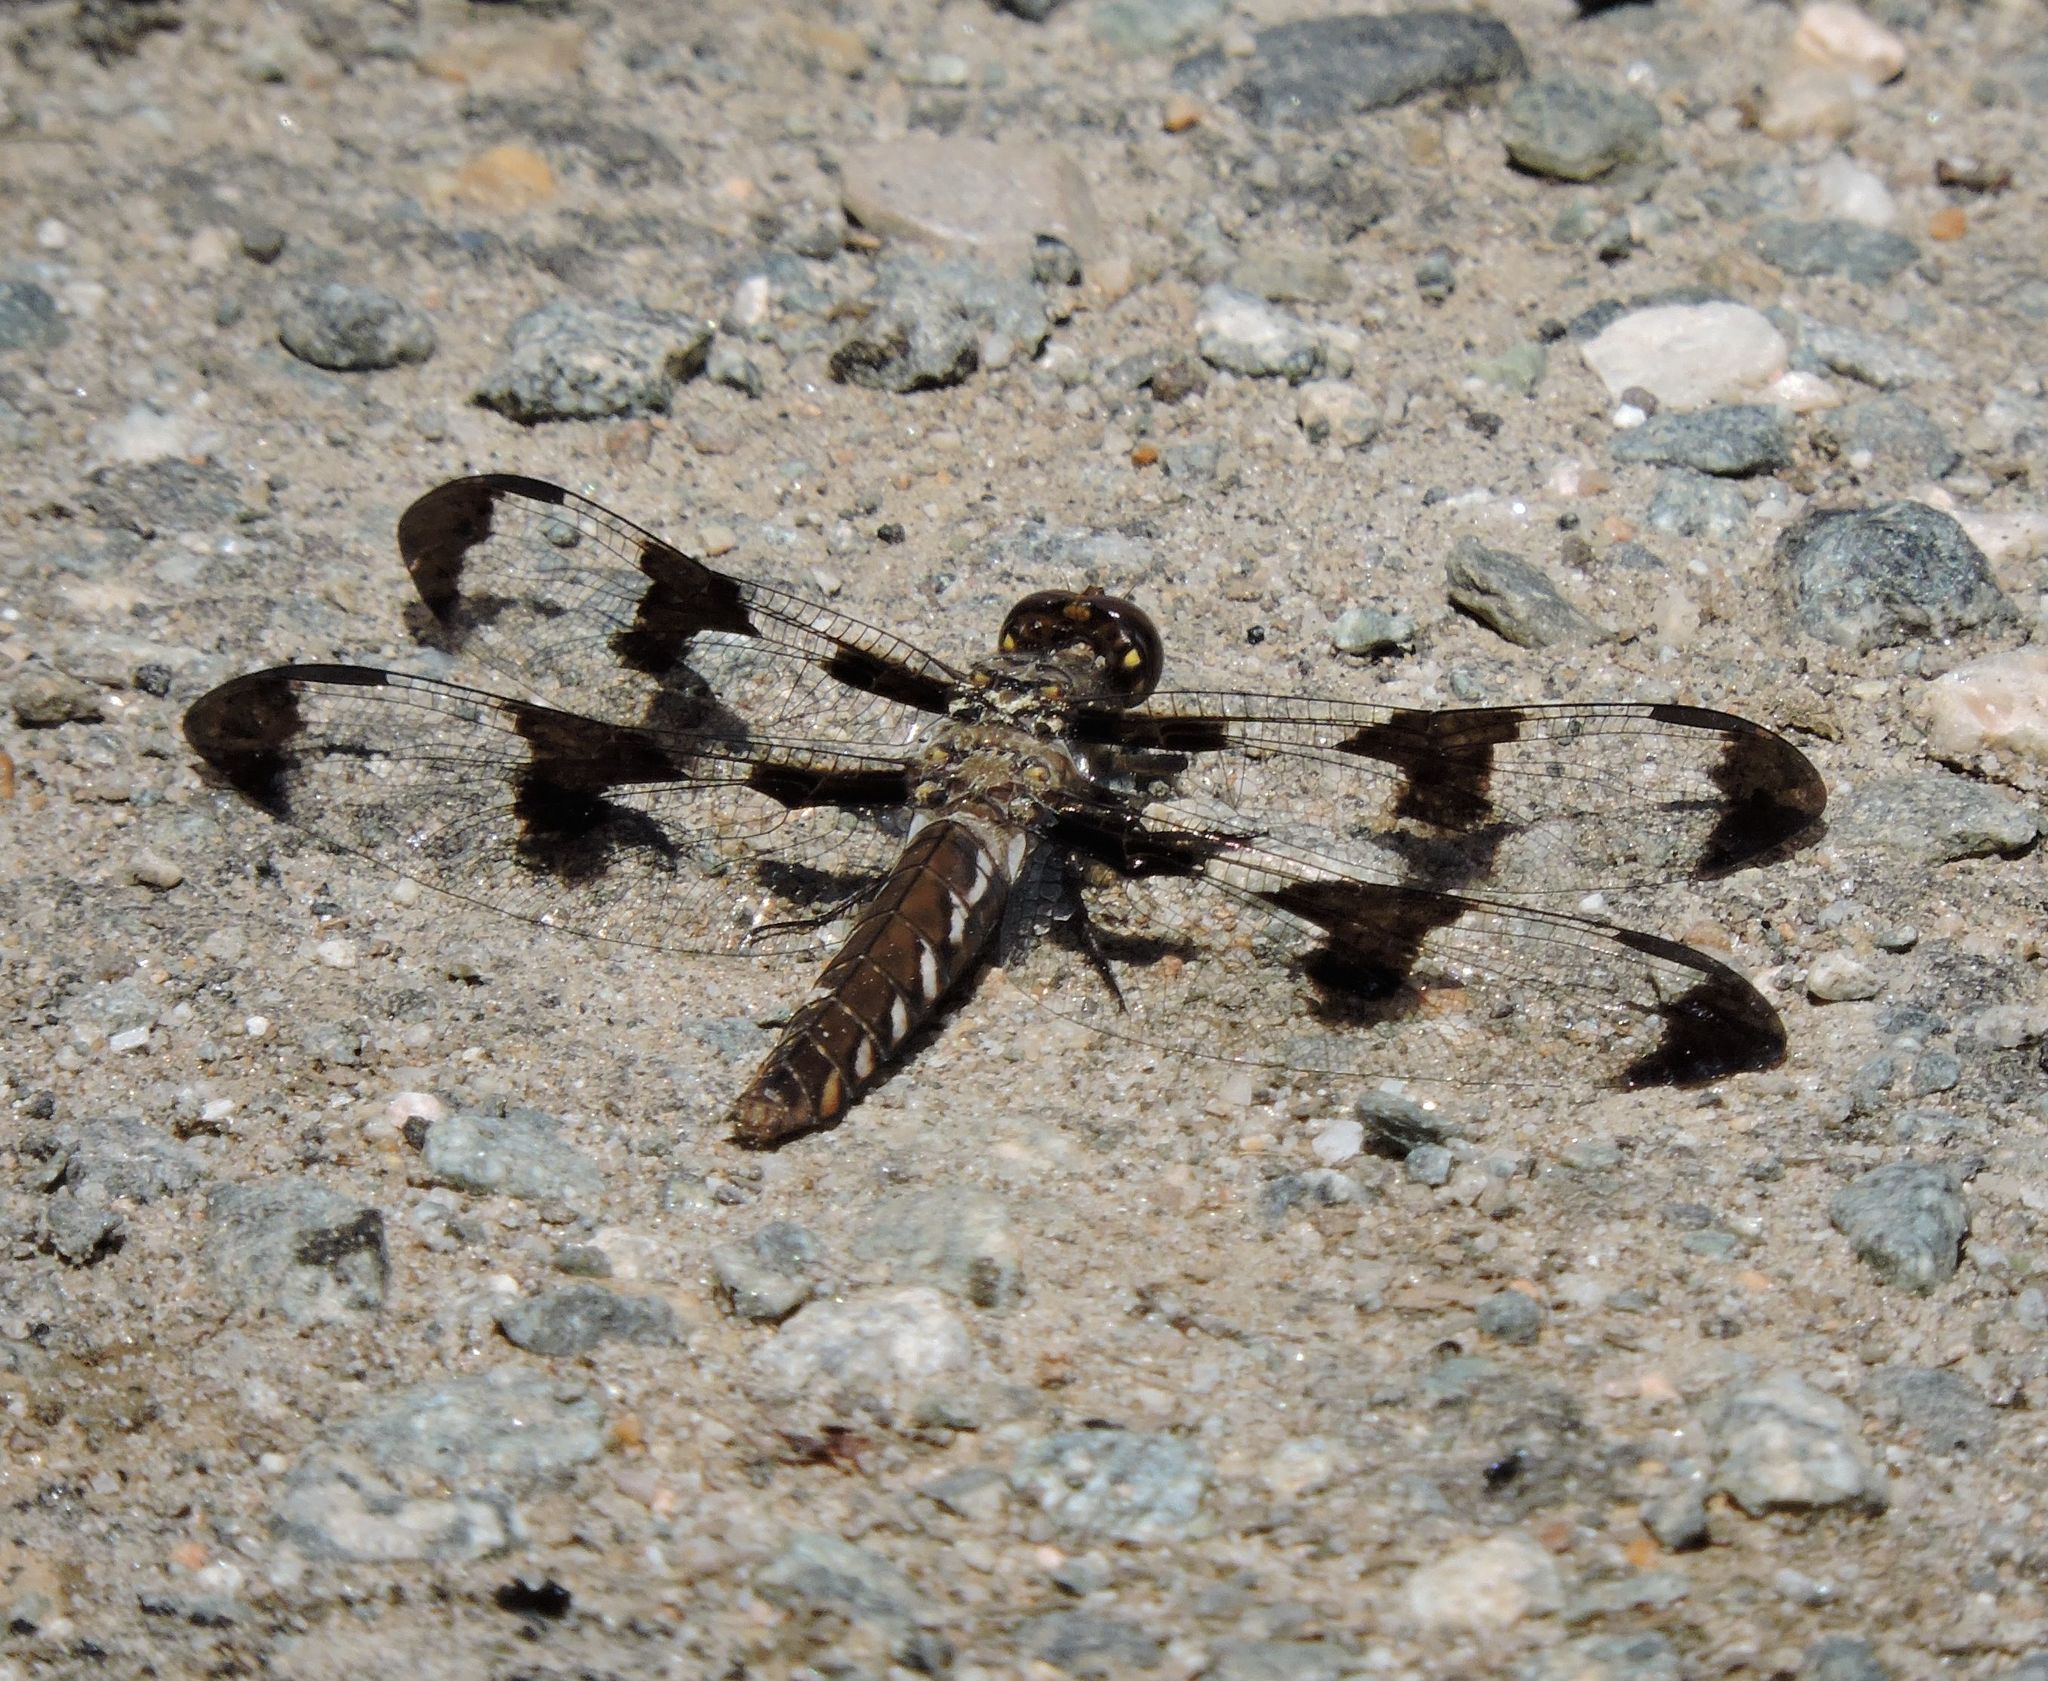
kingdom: Animalia
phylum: Arthropoda
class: Insecta
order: Odonata
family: Libellulidae
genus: Plathemis
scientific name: Plathemis lydia
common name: Common whitetail
